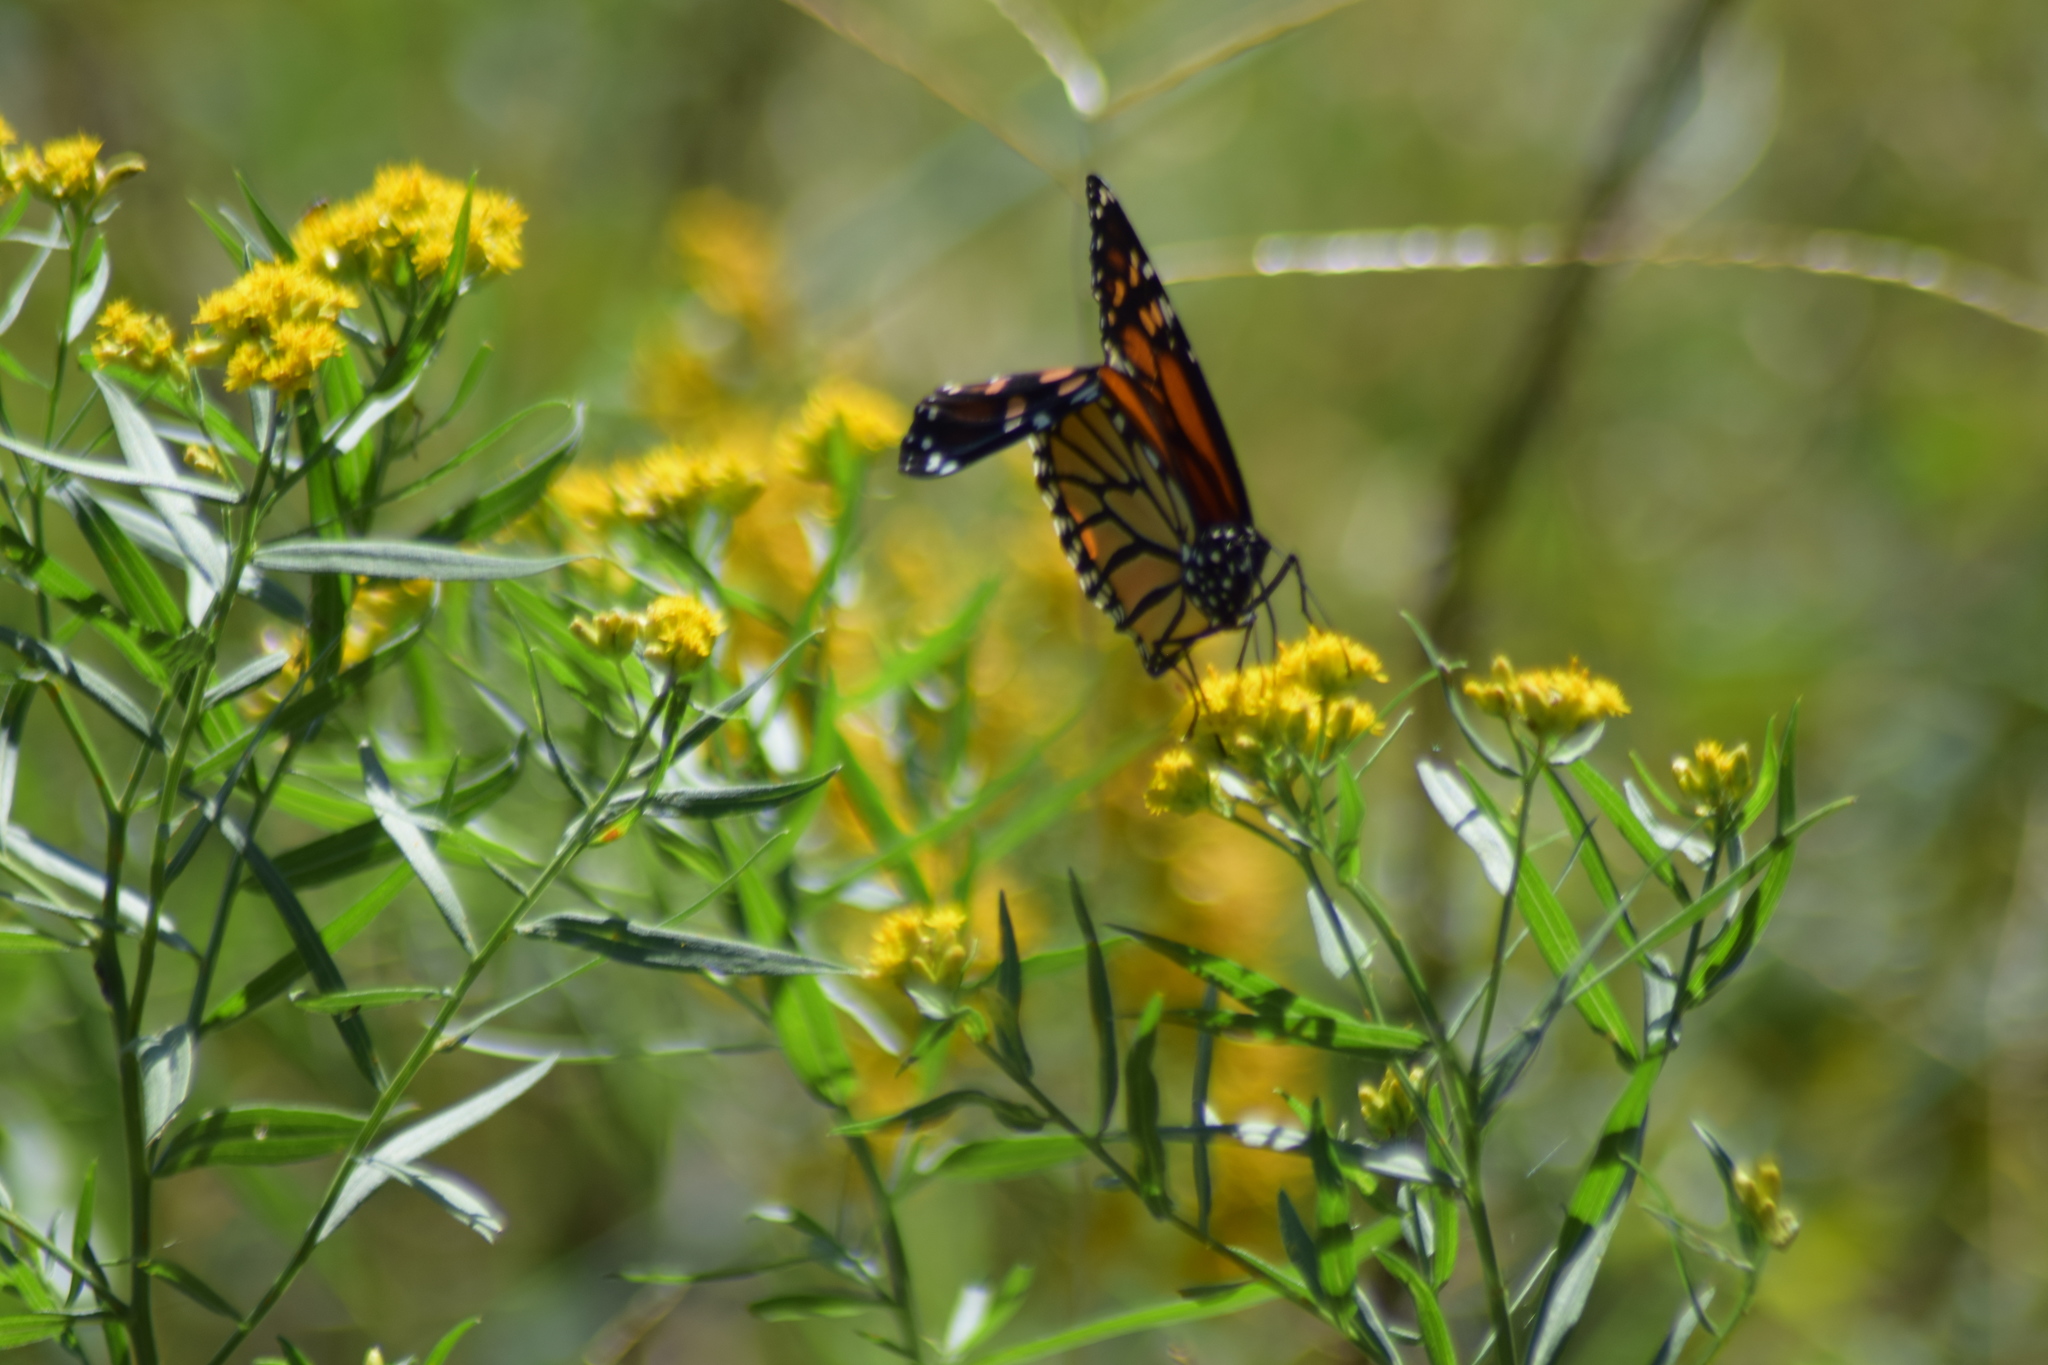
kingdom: Animalia
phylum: Arthropoda
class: Insecta
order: Lepidoptera
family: Nymphalidae
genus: Danaus
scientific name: Danaus plexippus
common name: Monarch
